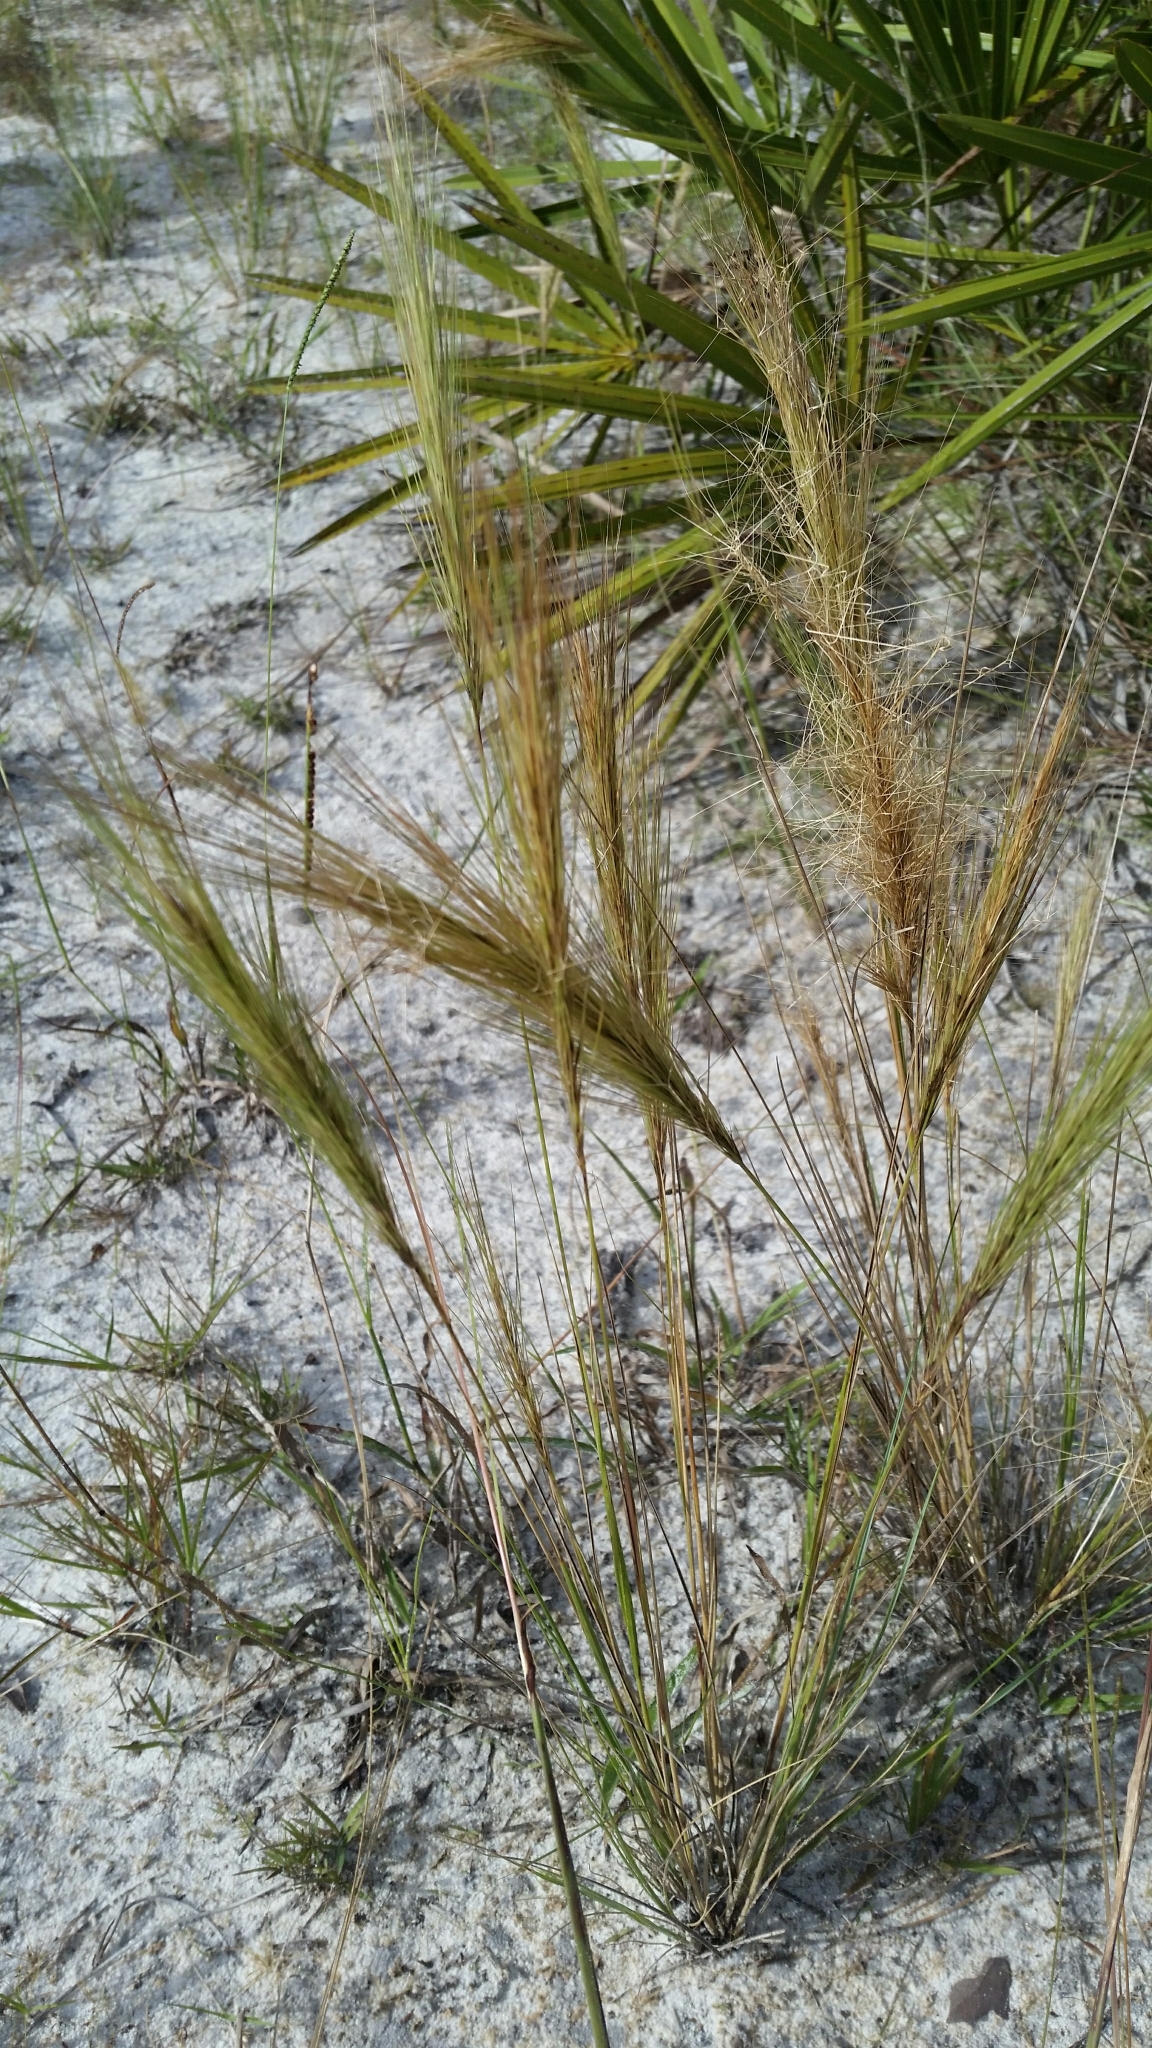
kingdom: Plantae
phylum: Tracheophyta
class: Liliopsida
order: Poales
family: Poaceae
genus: Aristida
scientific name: Aristida spiciformis
